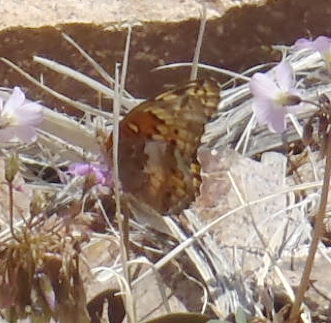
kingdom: Animalia
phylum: Arthropoda
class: Insecta
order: Lepidoptera
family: Nymphalidae
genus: Euptoieta
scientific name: Euptoieta claudia
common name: Variegated fritillary
